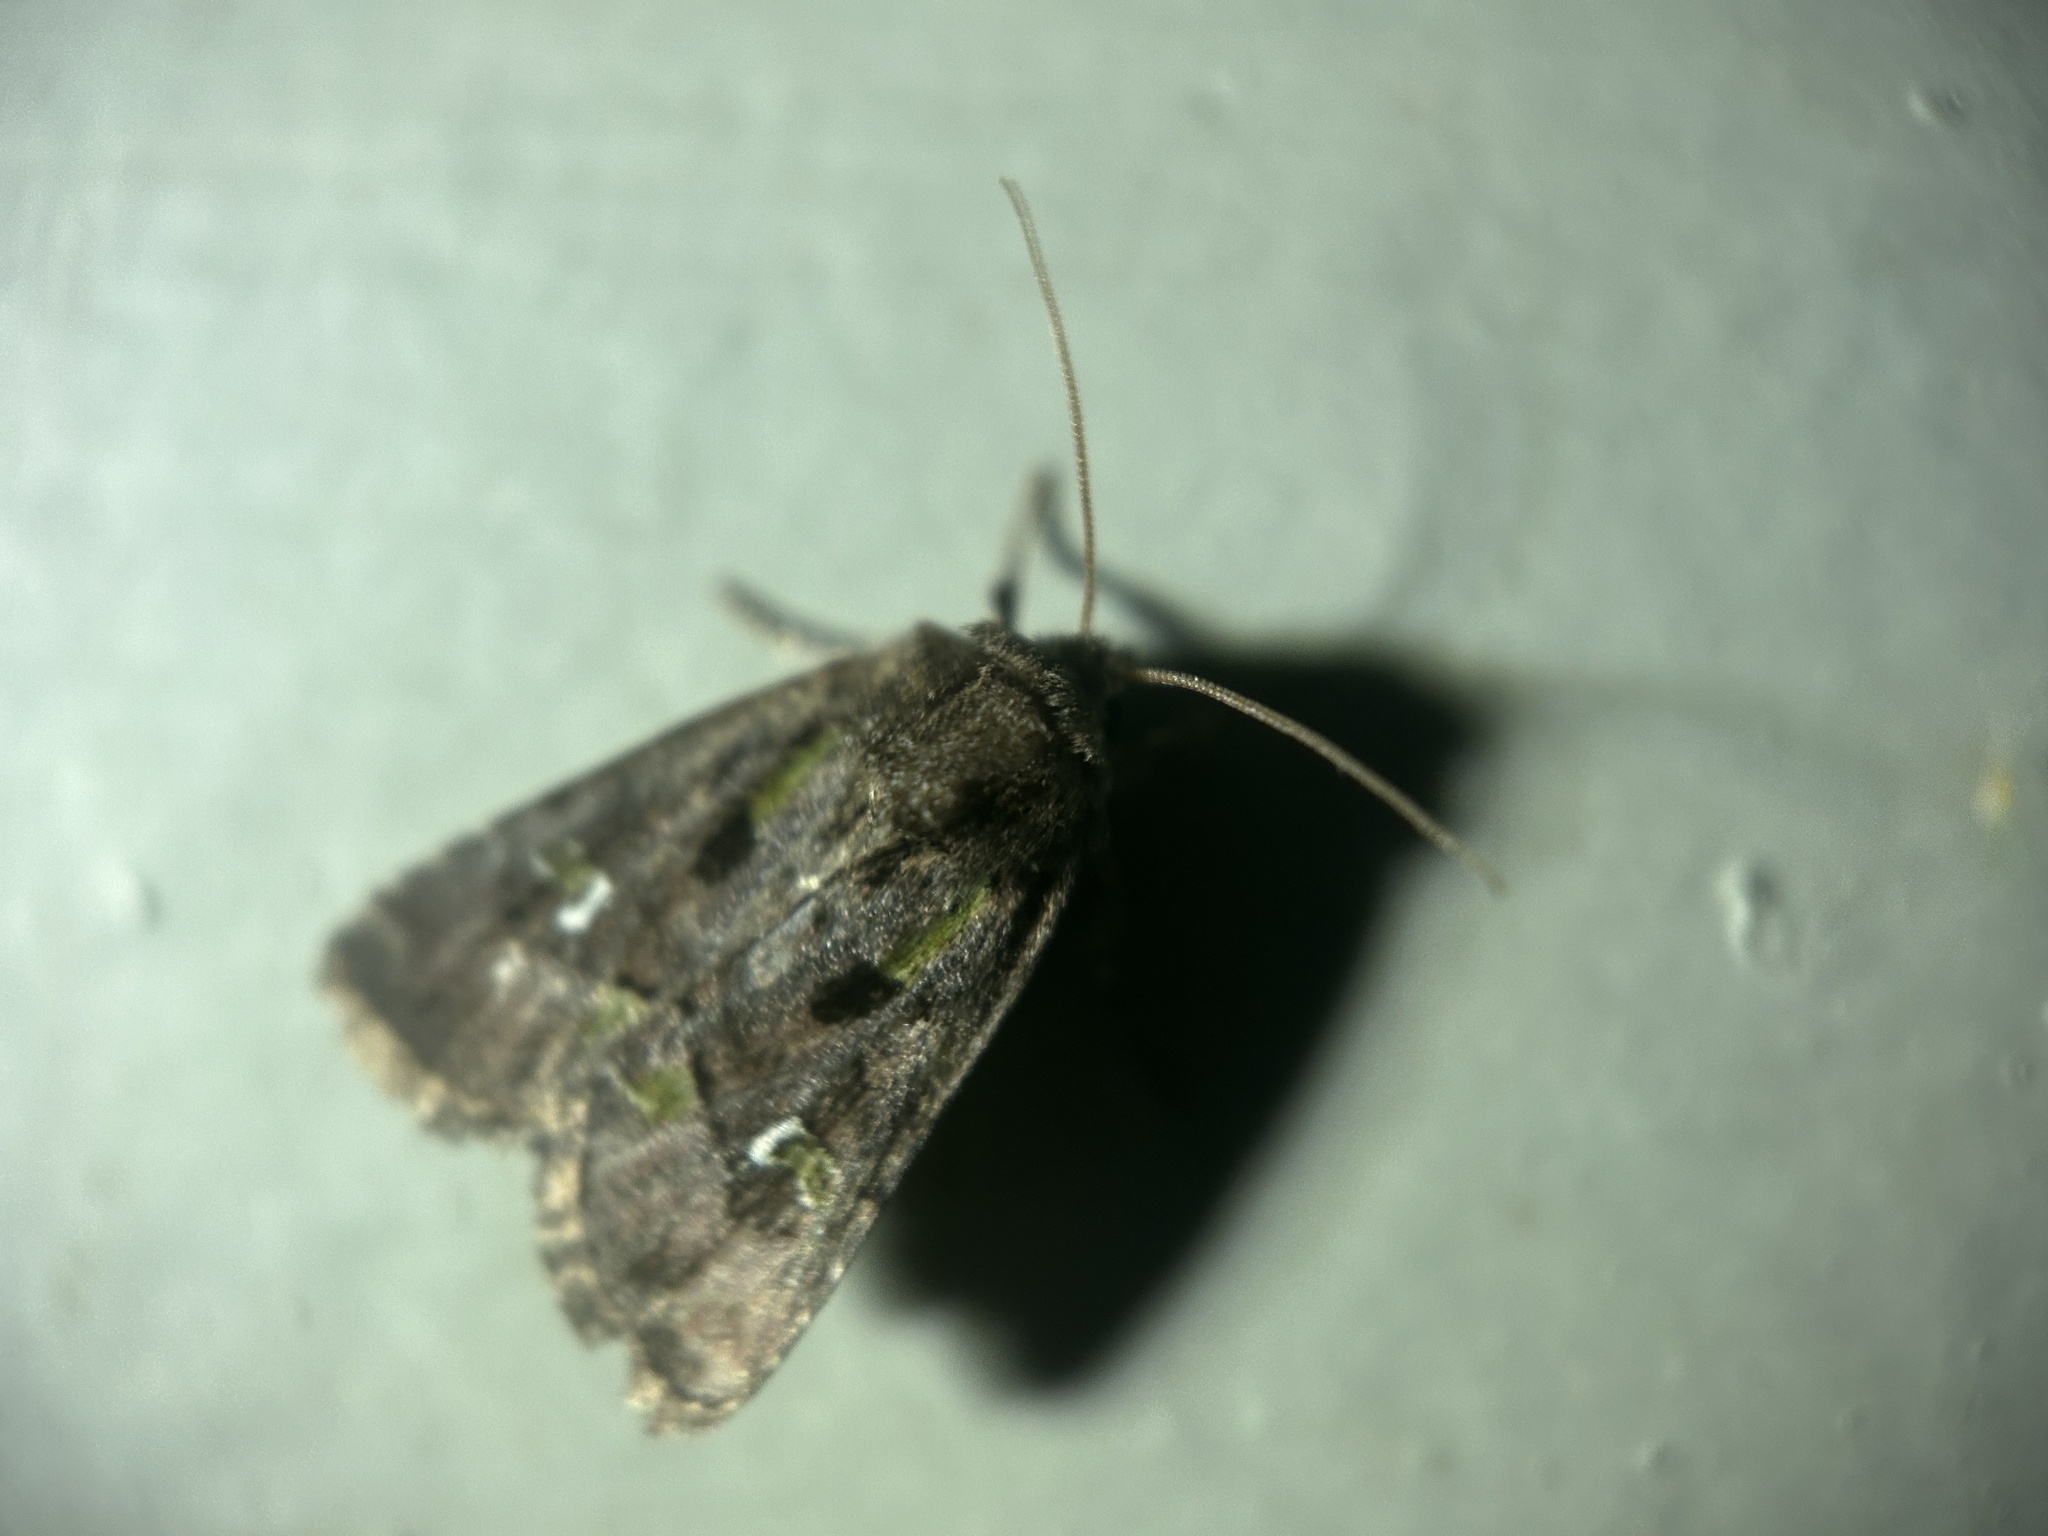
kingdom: Animalia
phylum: Arthropoda
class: Insecta
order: Lepidoptera
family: Noctuidae
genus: Lacinipolia
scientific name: Lacinipolia renigera
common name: Kidney-spotted minor
